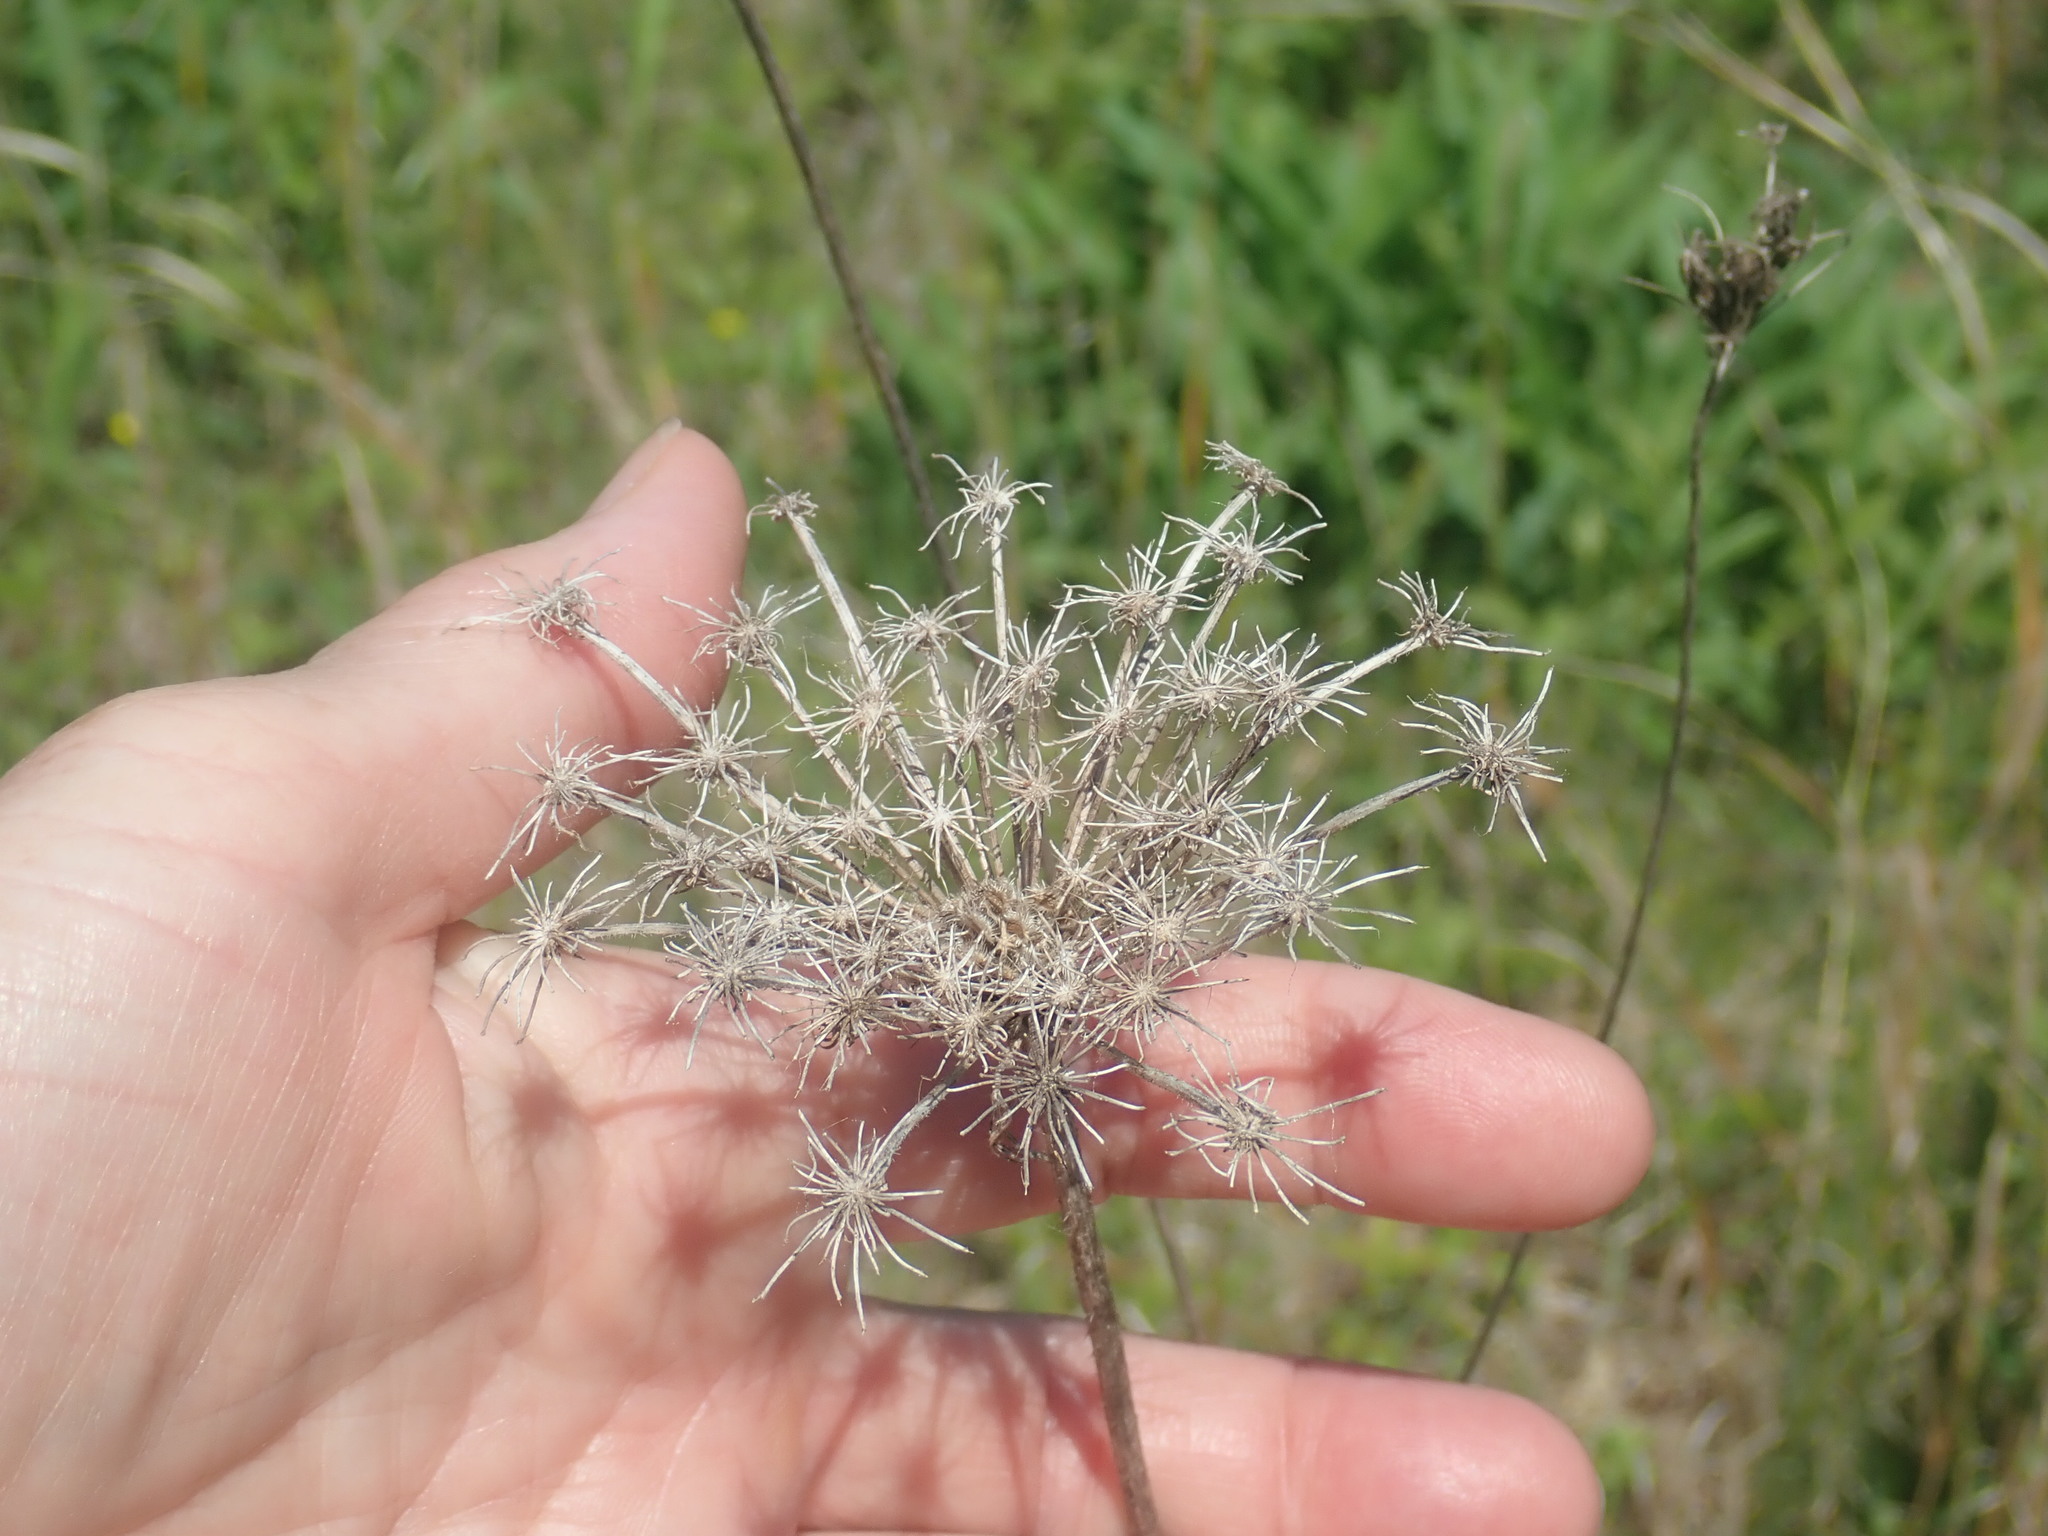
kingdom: Plantae
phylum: Tracheophyta
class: Magnoliopsida
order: Apiales
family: Apiaceae
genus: Daucus
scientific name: Daucus carota
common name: Wild carrot
